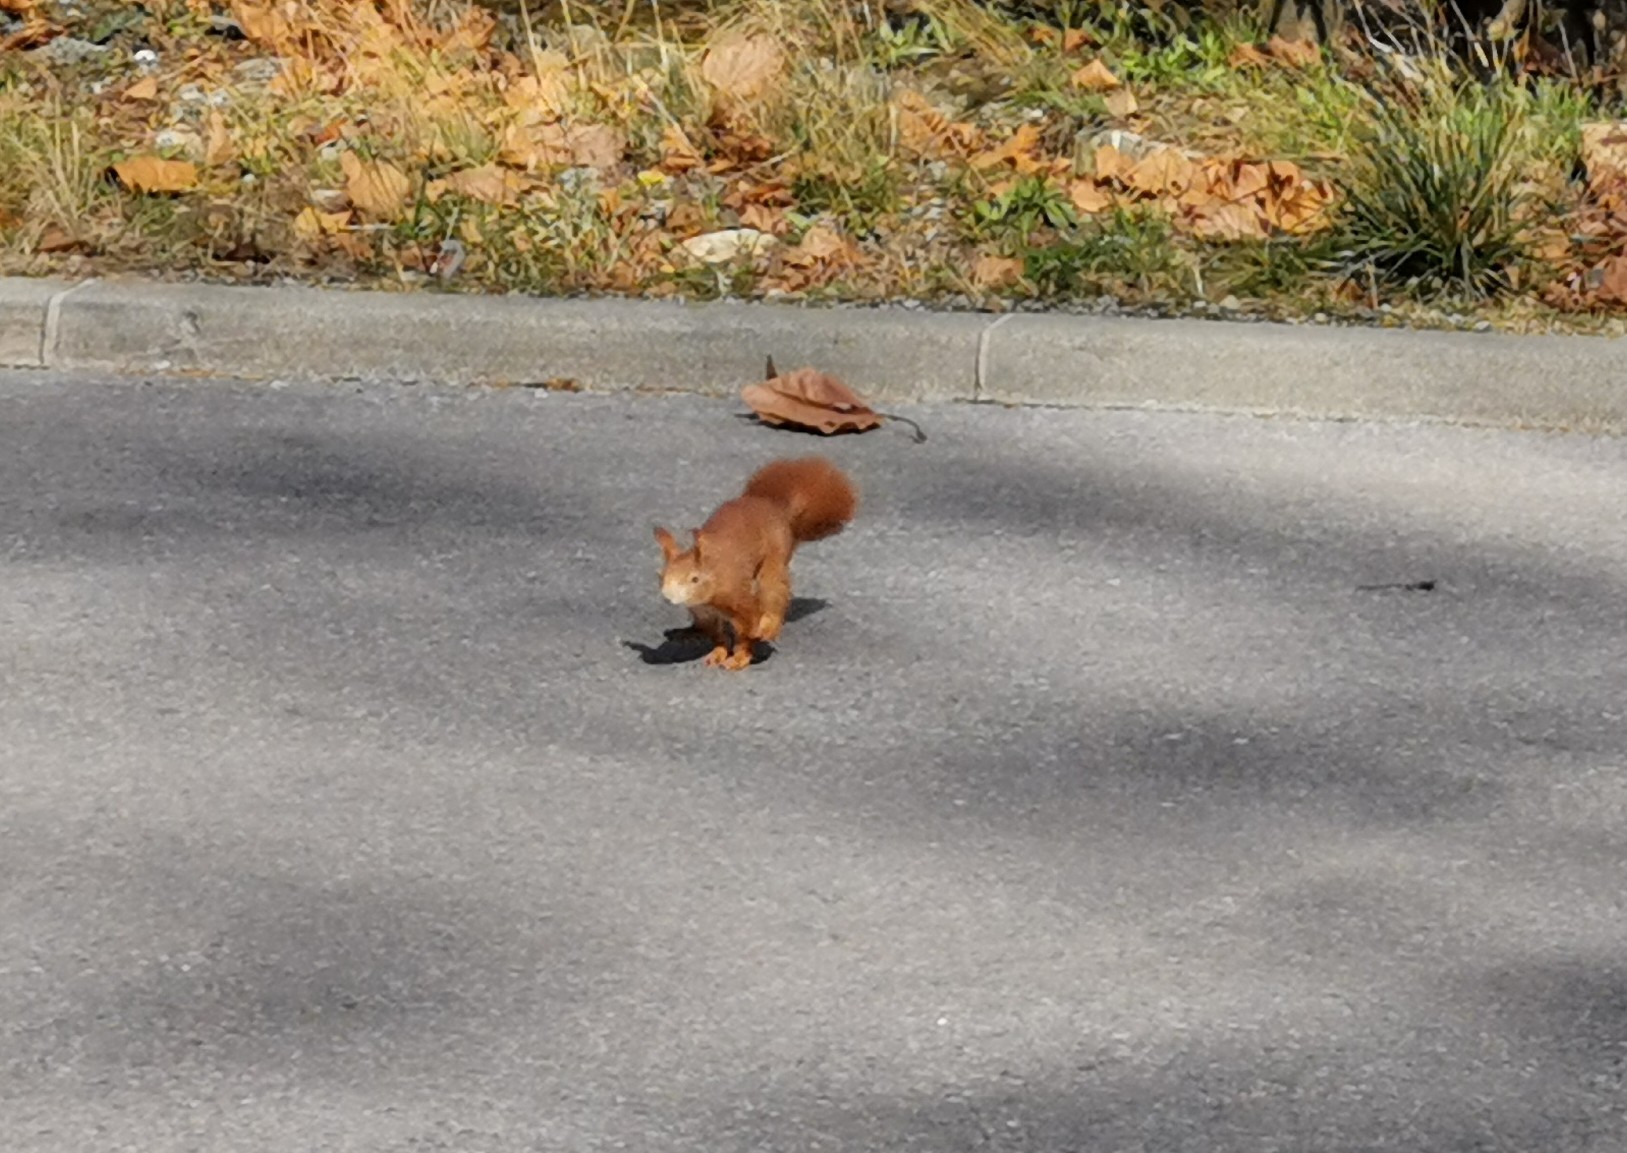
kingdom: Animalia
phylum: Chordata
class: Mammalia
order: Rodentia
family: Sciuridae
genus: Sciurus
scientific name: Sciurus vulgaris
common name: Eurasian red squirrel
